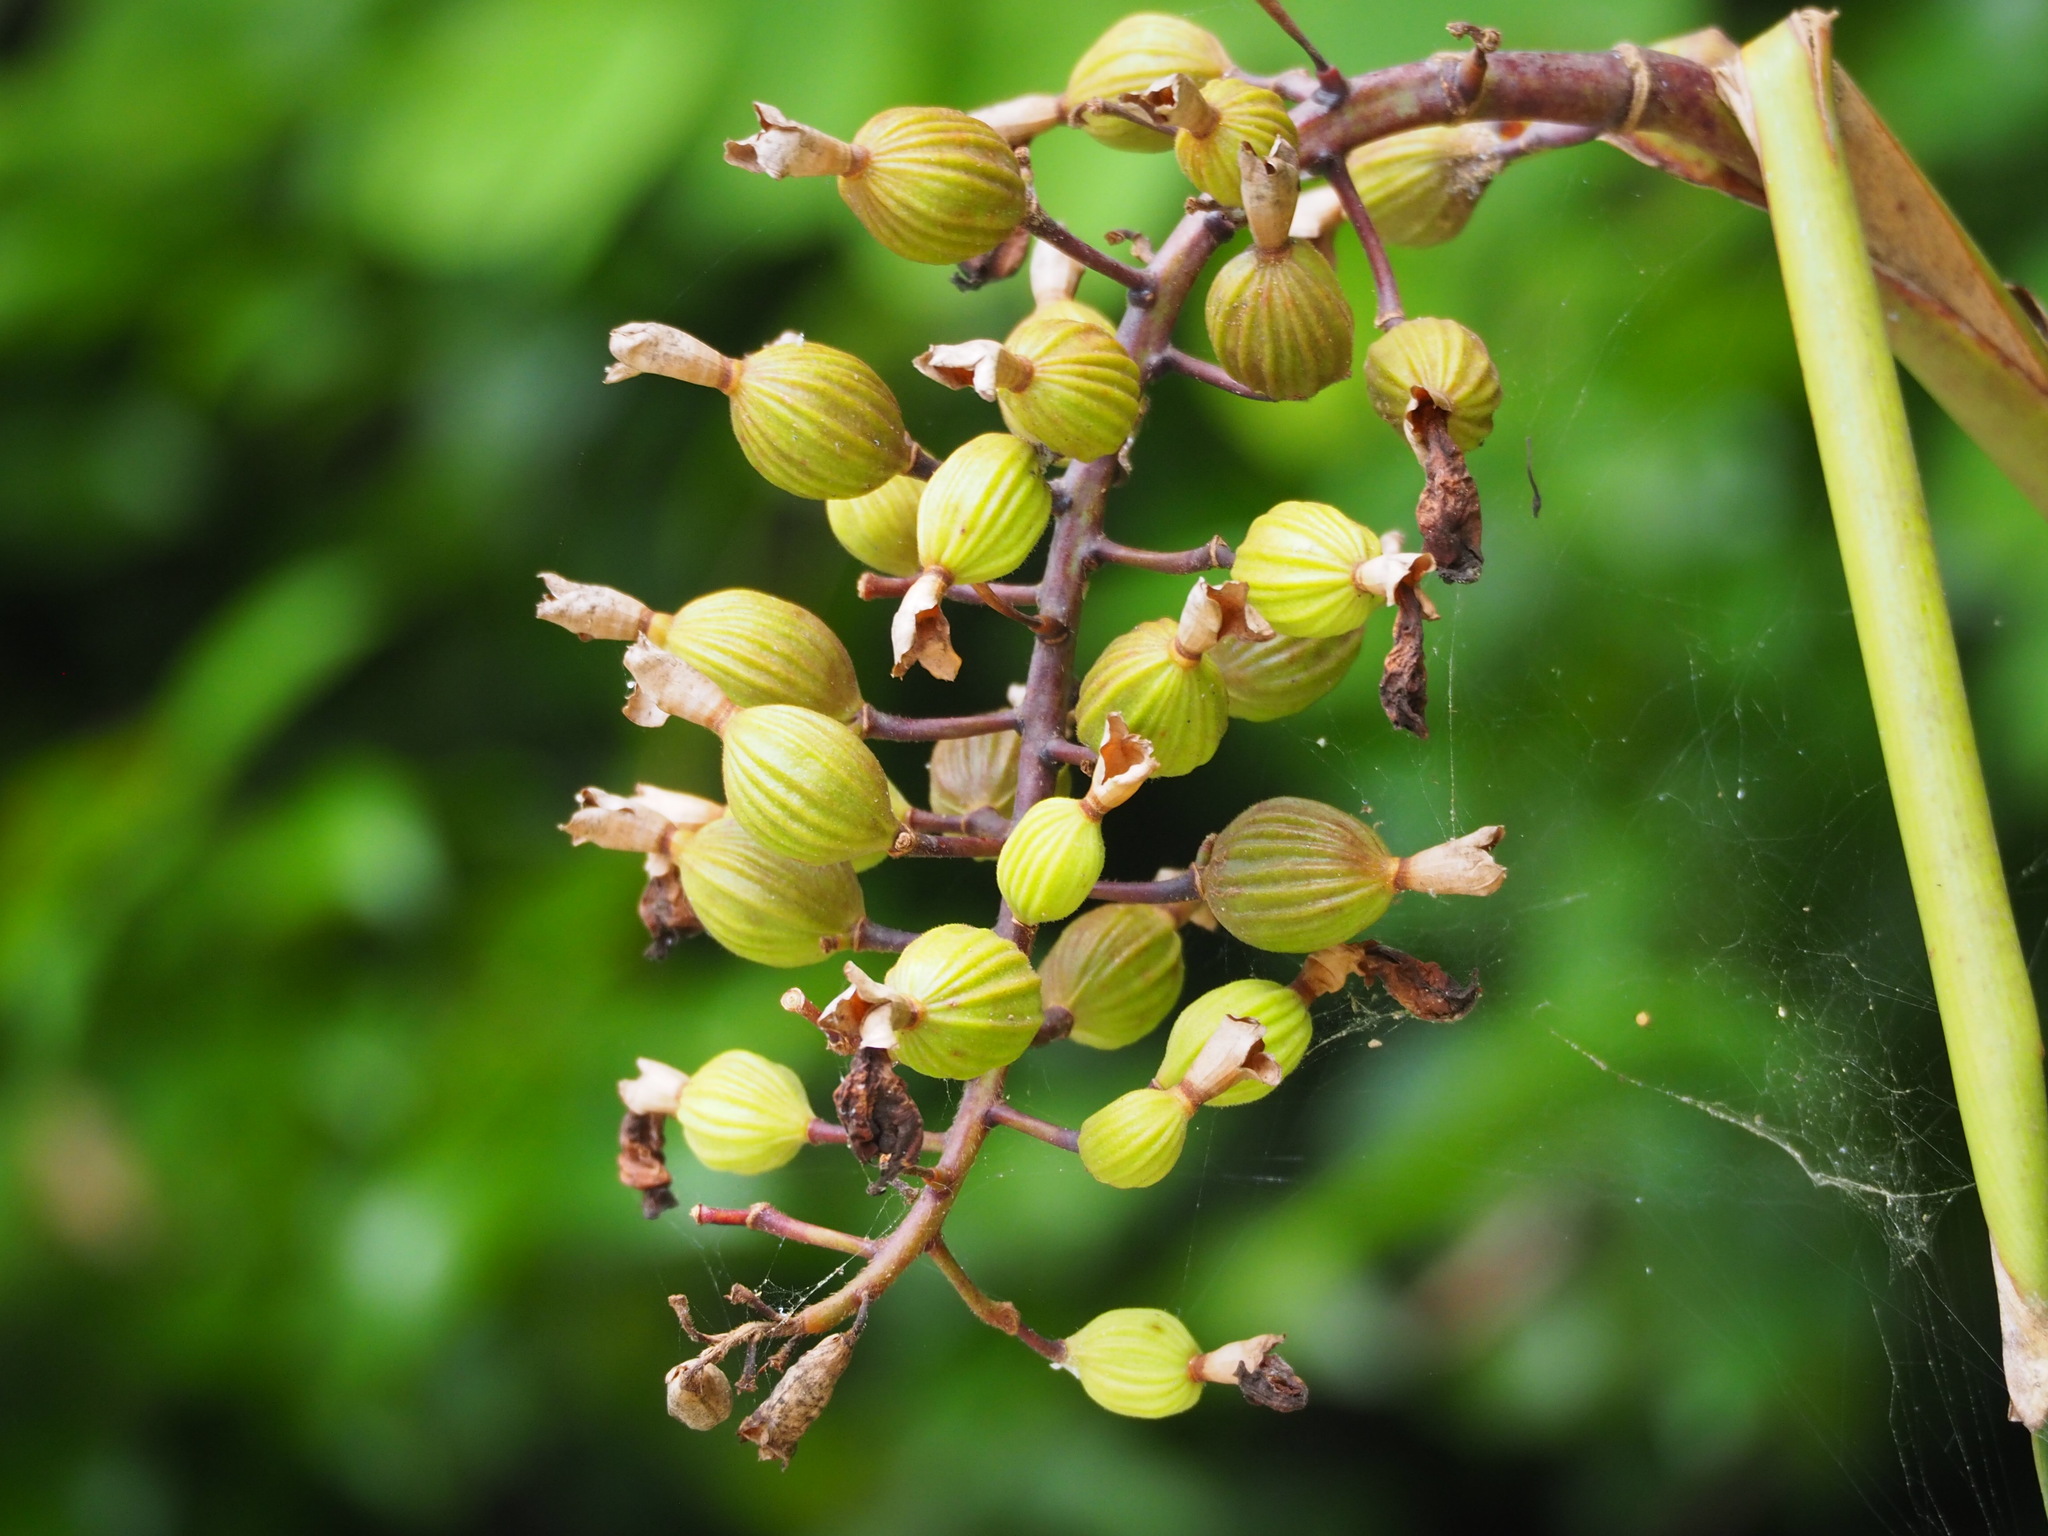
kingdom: Plantae
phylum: Tracheophyta
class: Liliopsida
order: Zingiberales
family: Zingiberaceae
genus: Alpinia
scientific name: Alpinia zerumbet
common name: Shellplant
